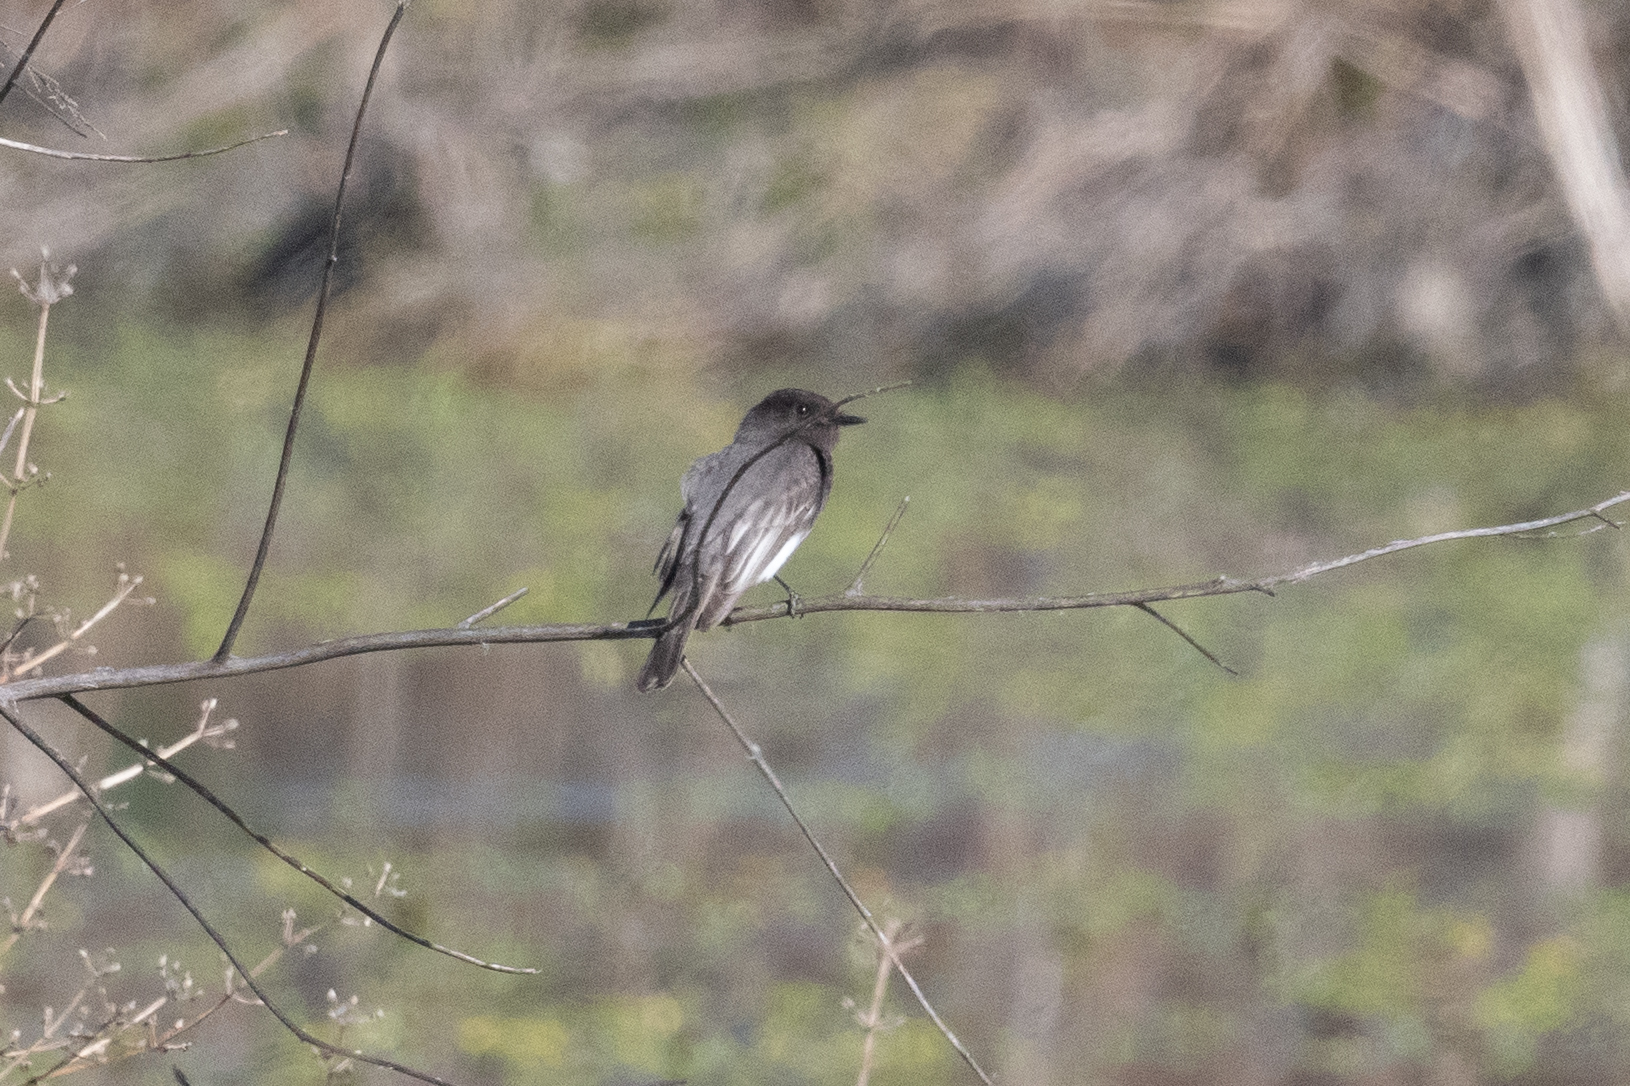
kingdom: Animalia
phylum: Chordata
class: Aves
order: Passeriformes
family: Tyrannidae
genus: Sayornis
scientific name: Sayornis nigricans
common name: Black phoebe
